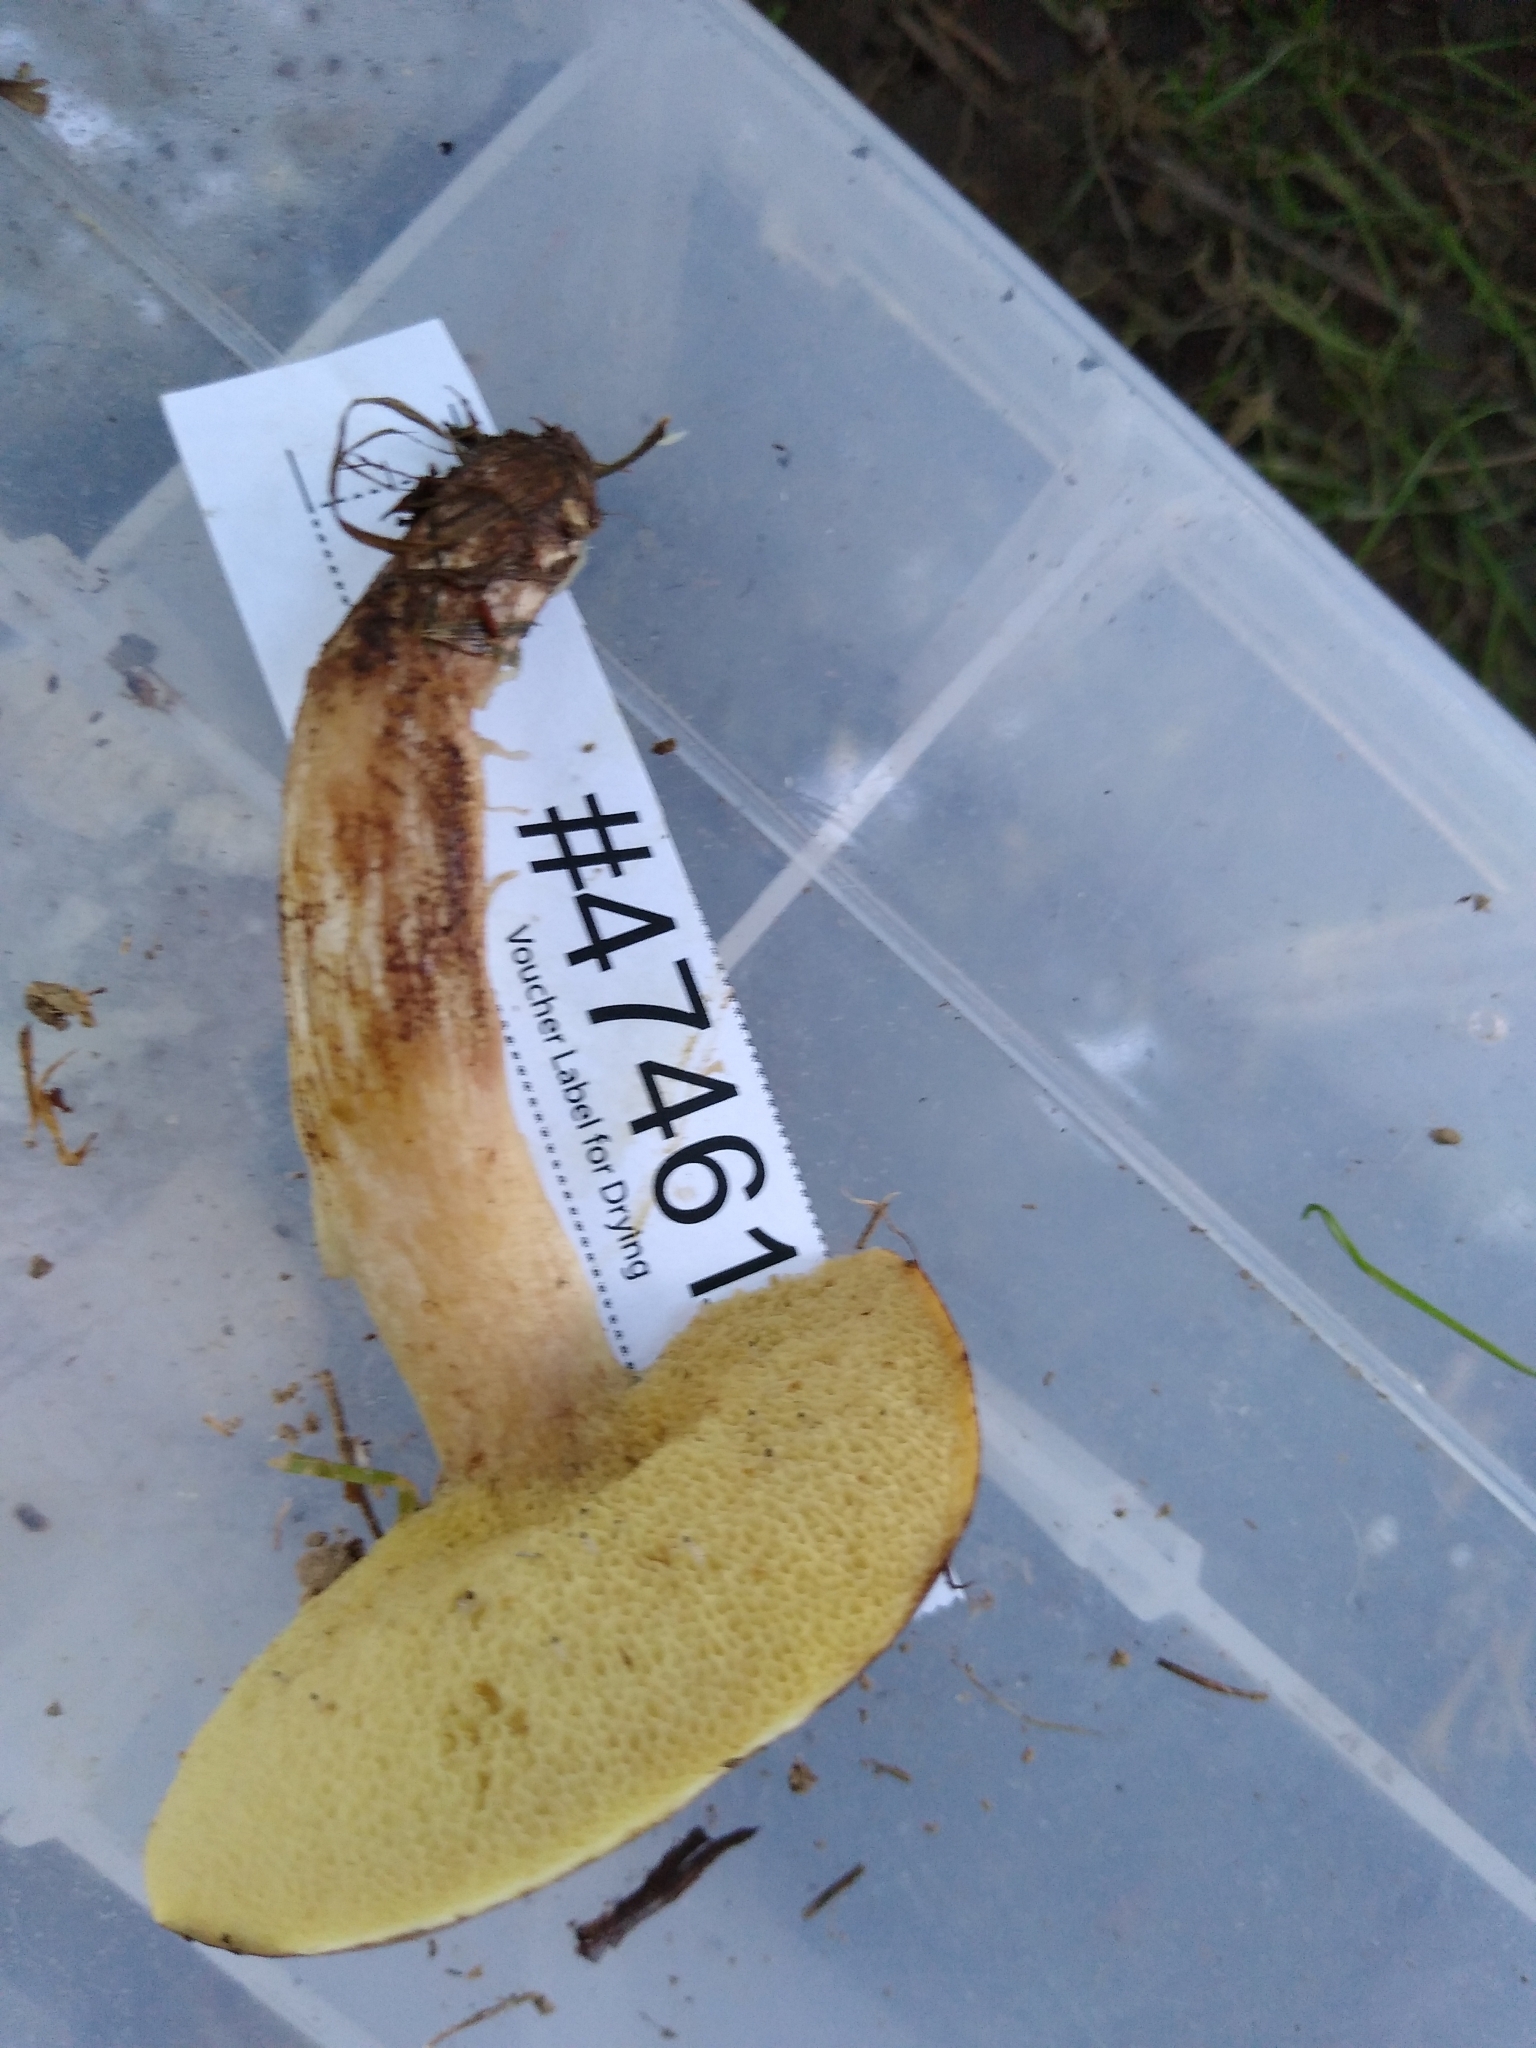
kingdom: Fungi
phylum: Basidiomycota
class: Agaricomycetes
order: Boletales
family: Suillaceae
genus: Suillus
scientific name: Suillus granulatus
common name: Weeping bolete
